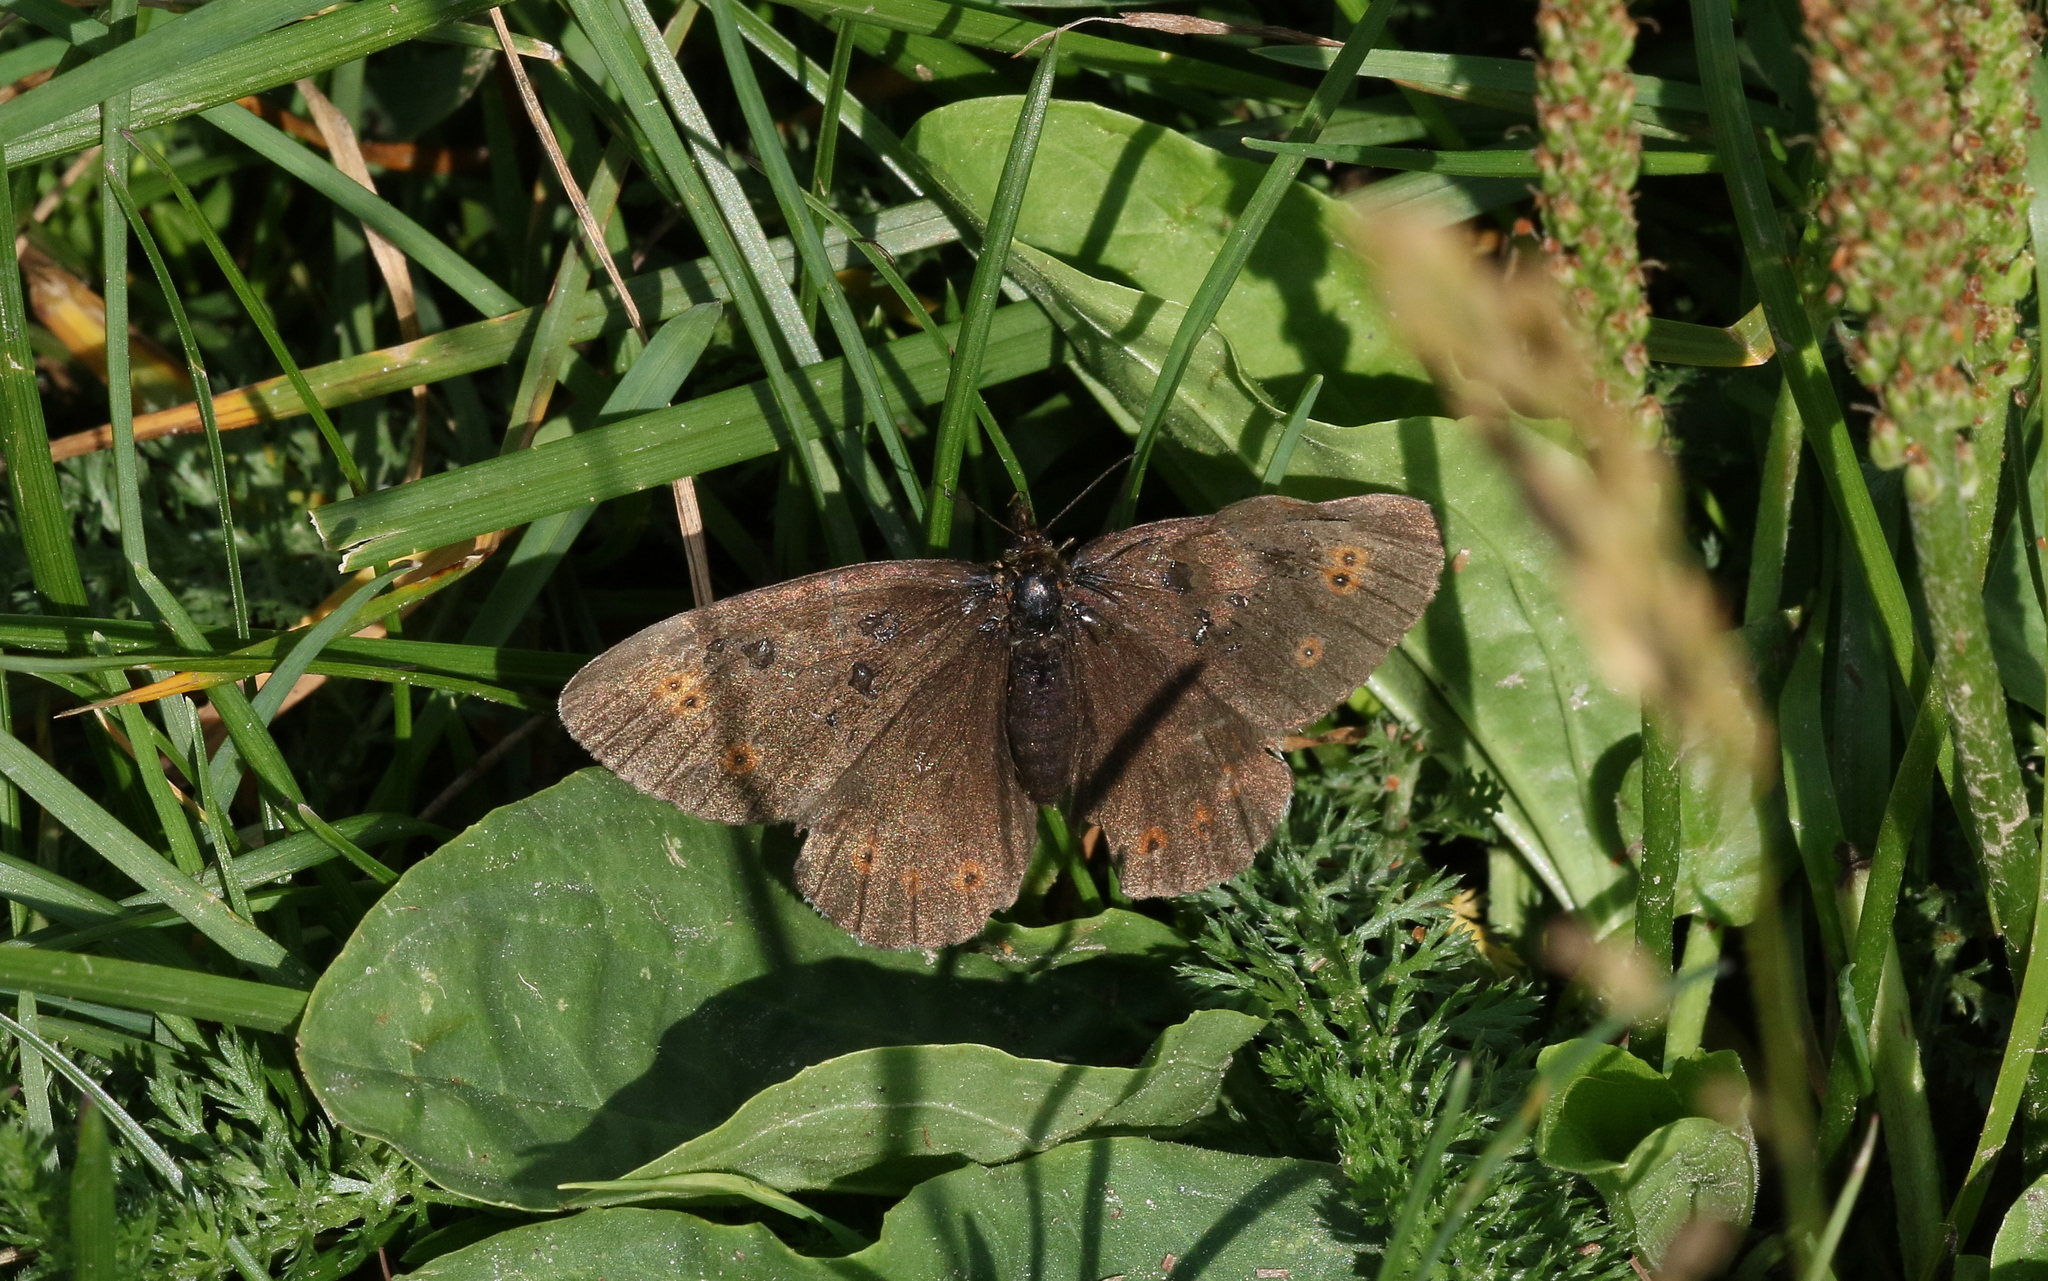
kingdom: Animalia
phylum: Arthropoda
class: Insecta
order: Lepidoptera
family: Nymphalidae
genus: Erebia
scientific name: Erebia oeme
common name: Bright-eyed ringlet
